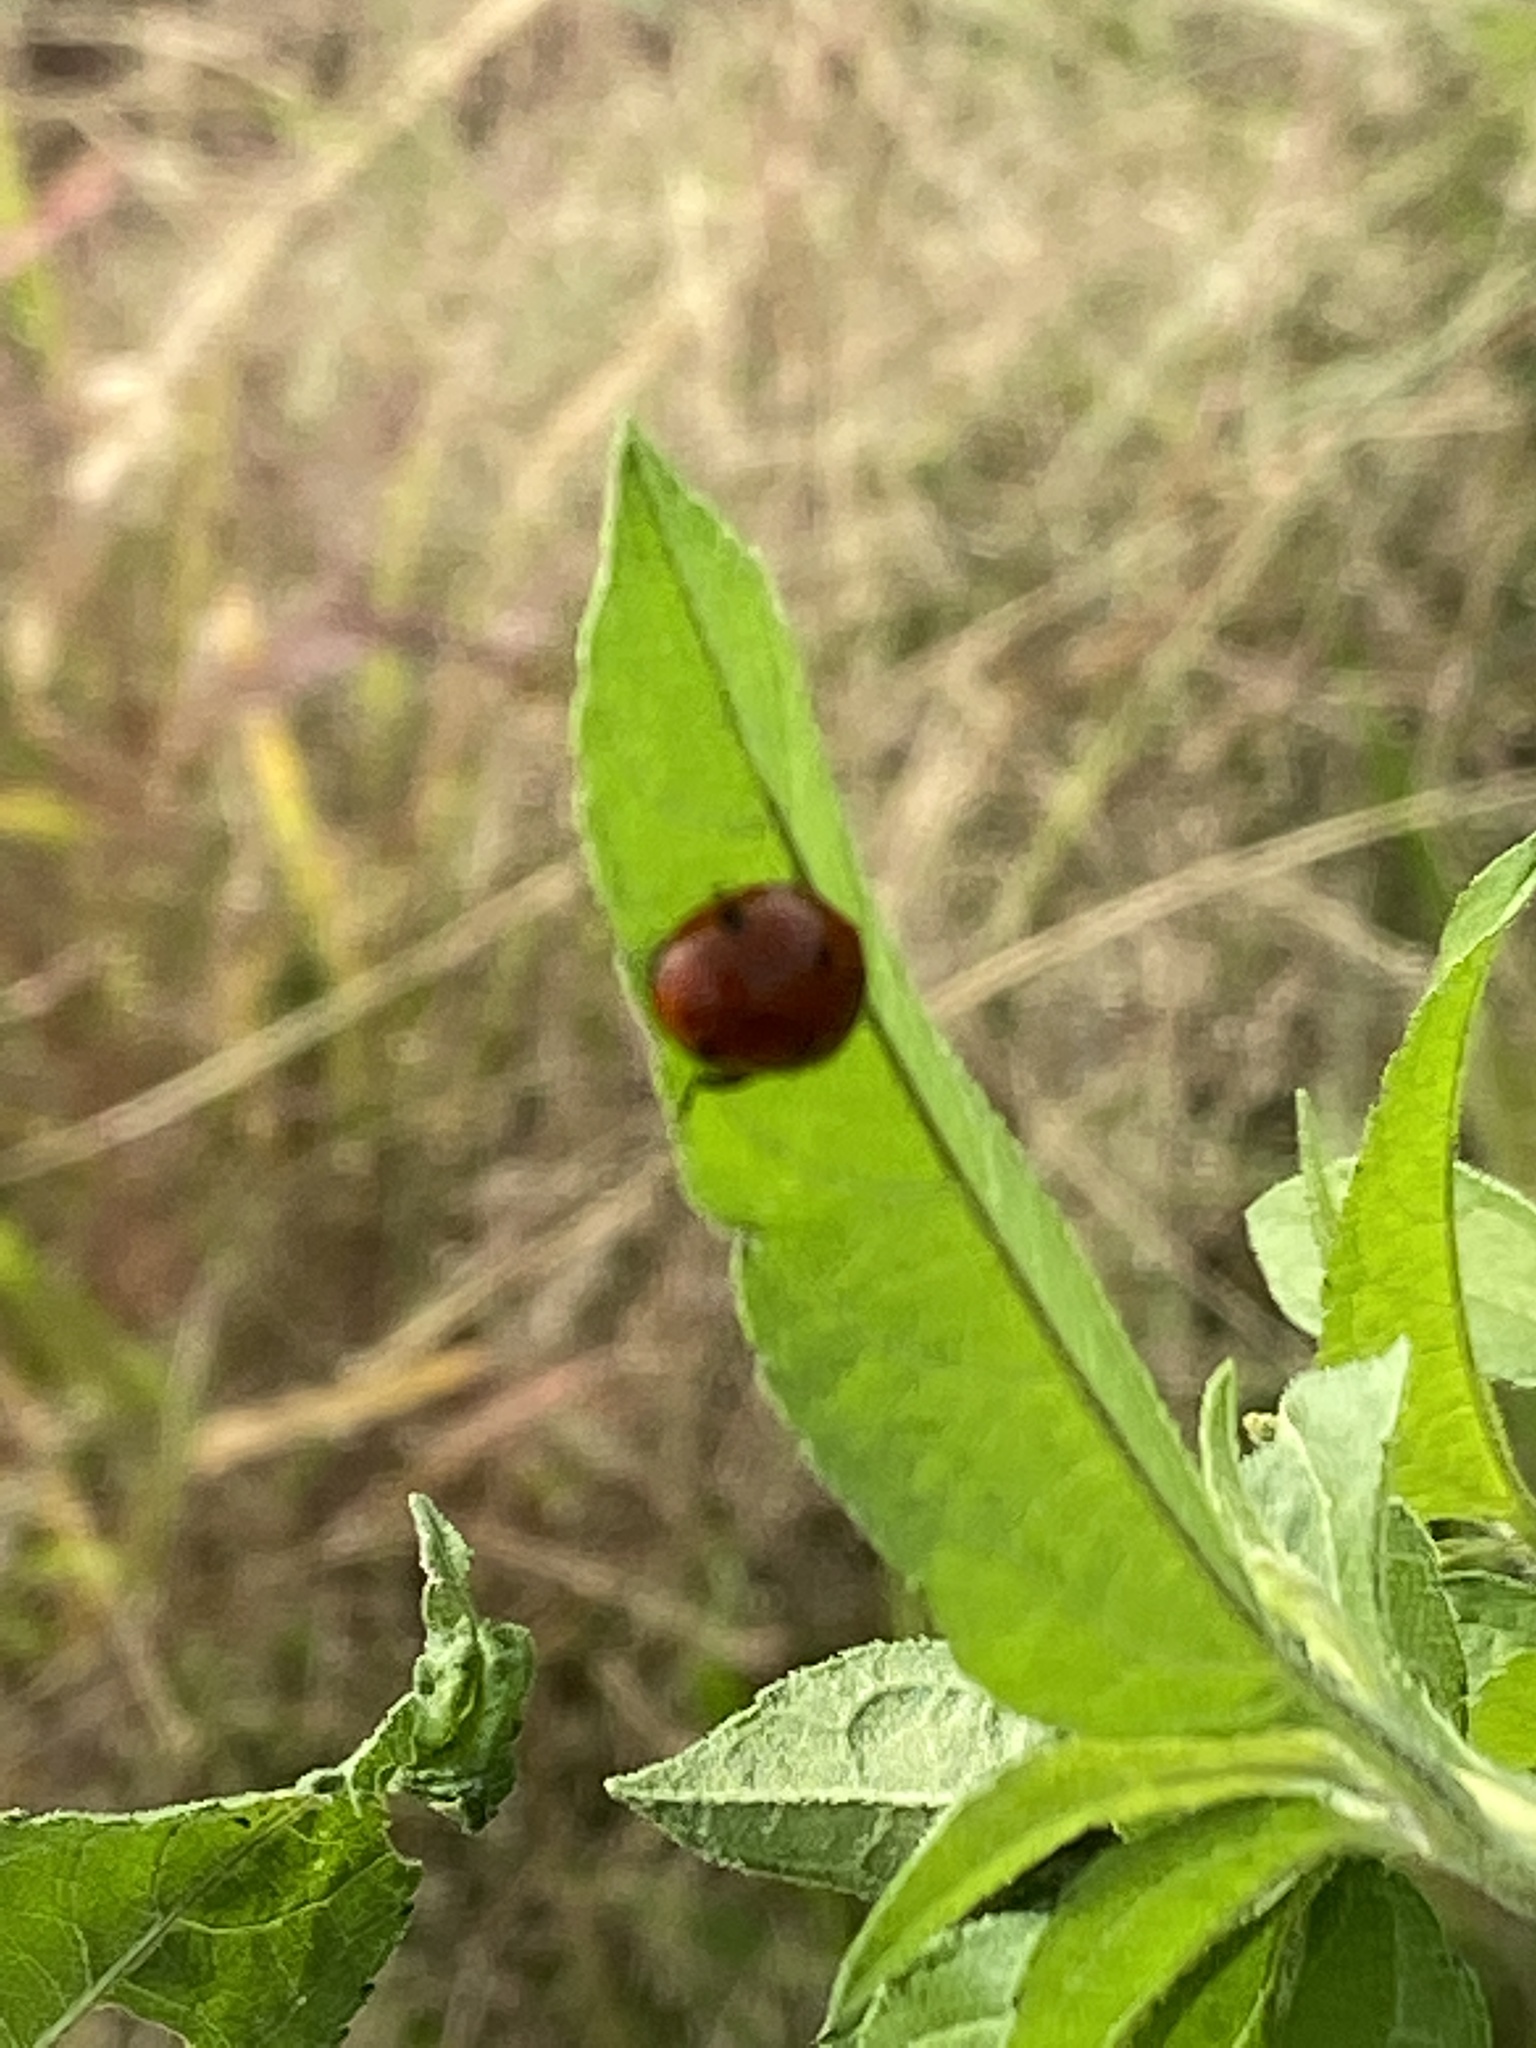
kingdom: Animalia
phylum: Arthropoda
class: Insecta
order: Coleoptera
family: Coccinellidae
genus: Coccinella
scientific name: Coccinella septempunctata
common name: Sevenspotted lady beetle
